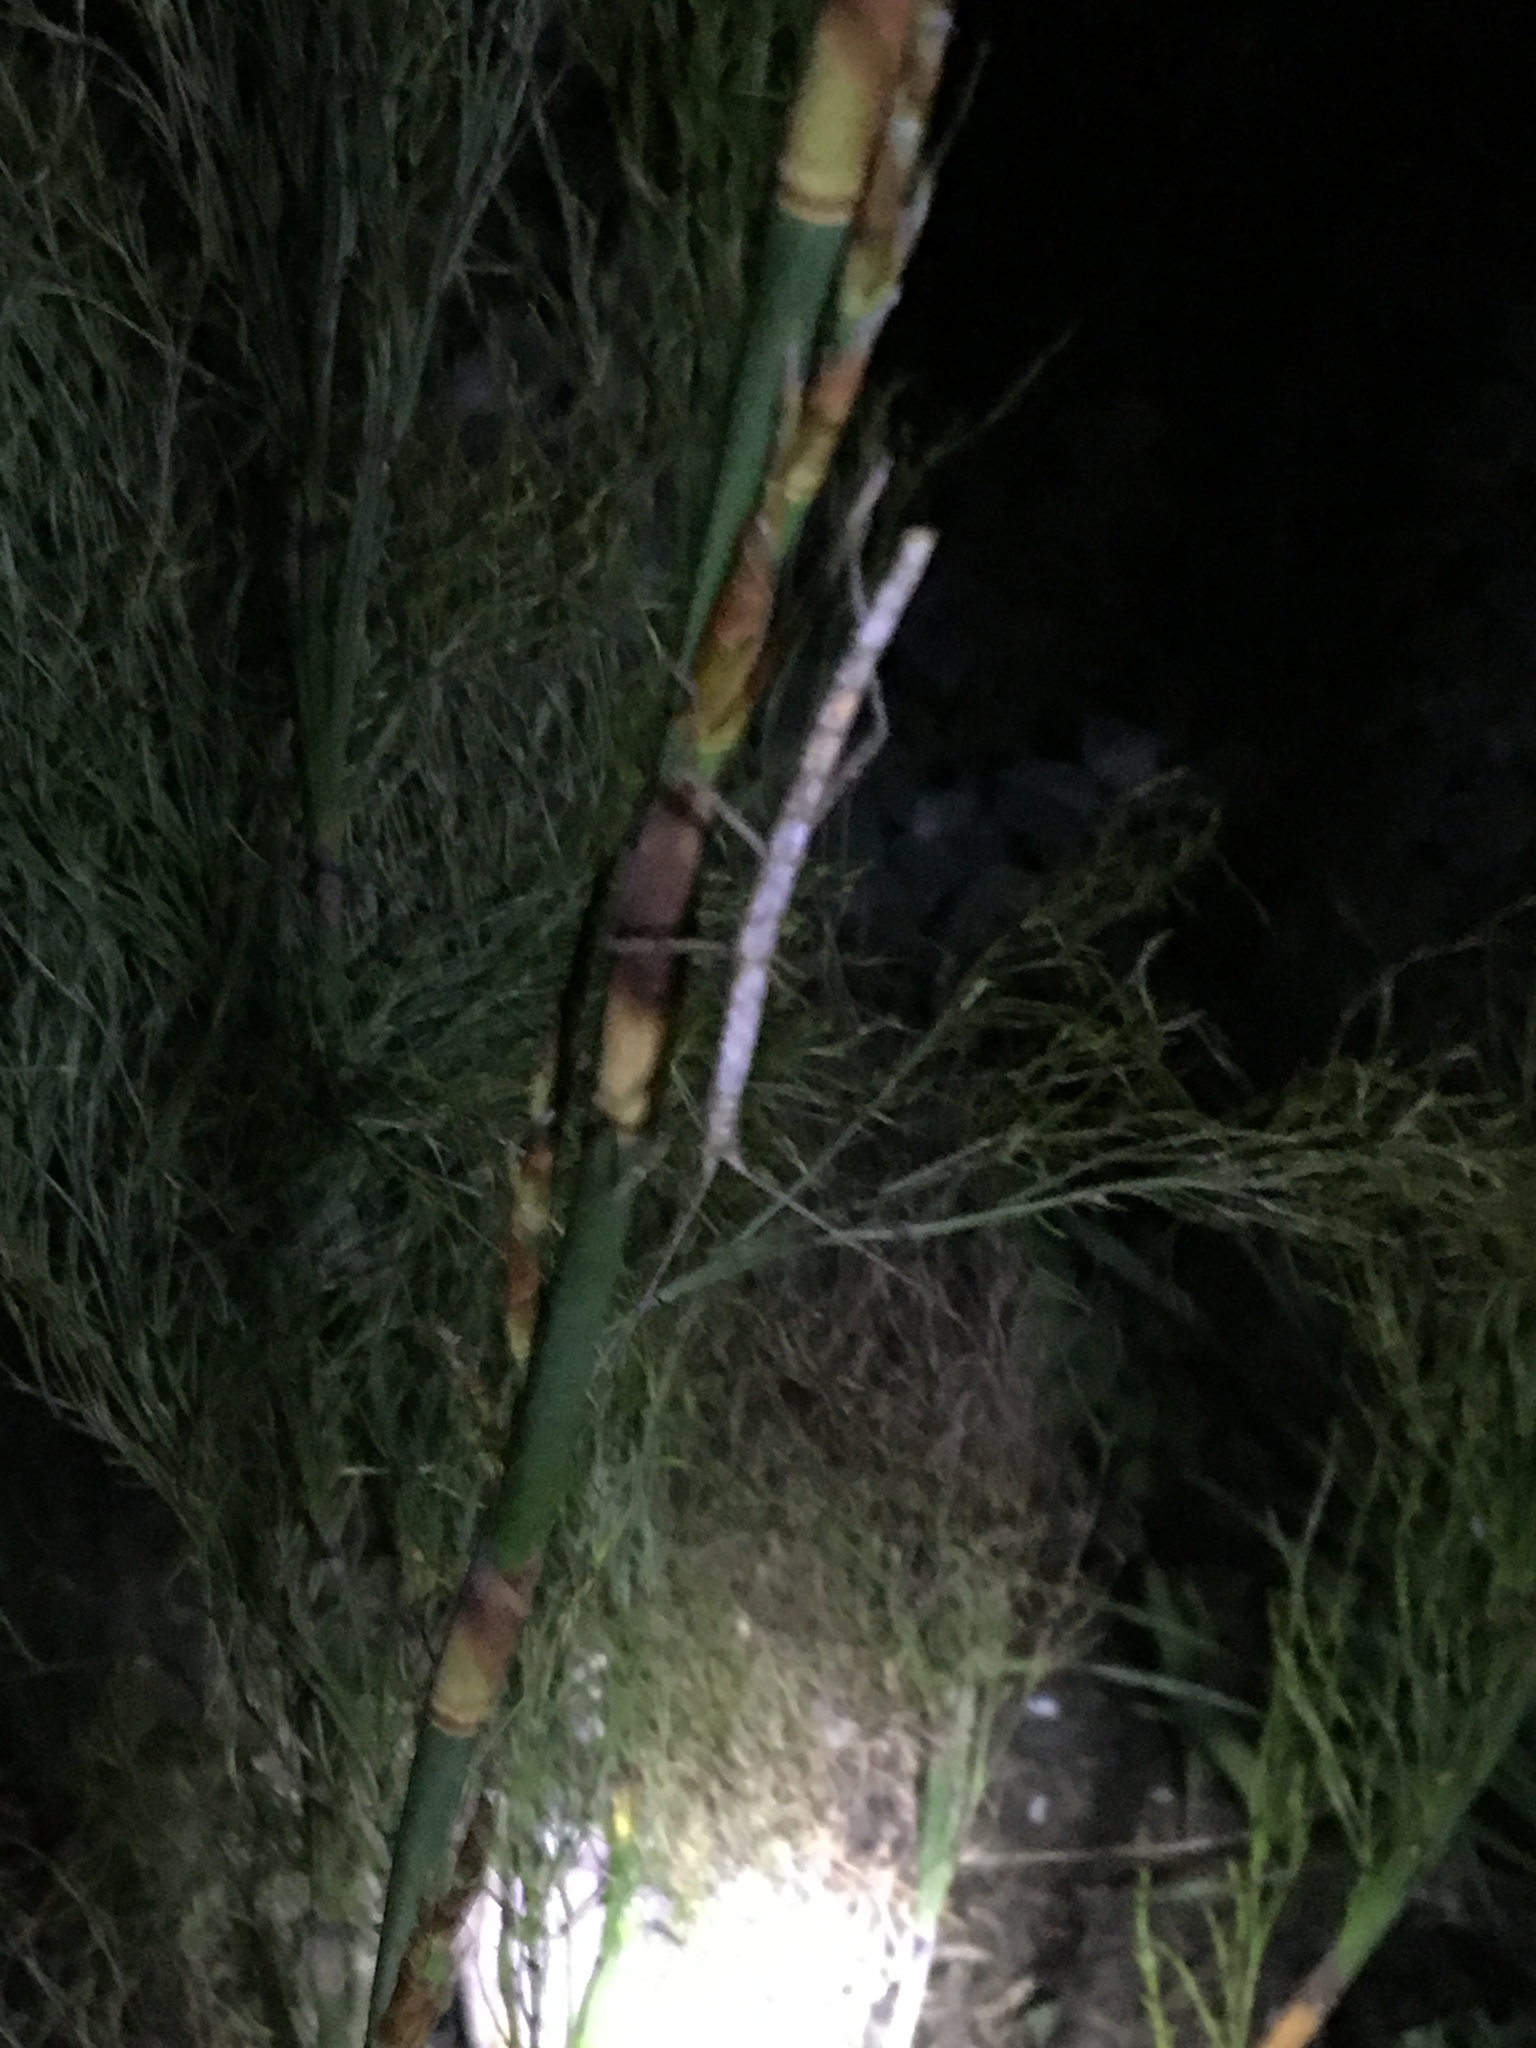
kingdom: Animalia
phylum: Arthropoda
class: Insecta
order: Phasmida
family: Lonchodidae
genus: Carausius
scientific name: Carausius morosus
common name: Indian stick insect
